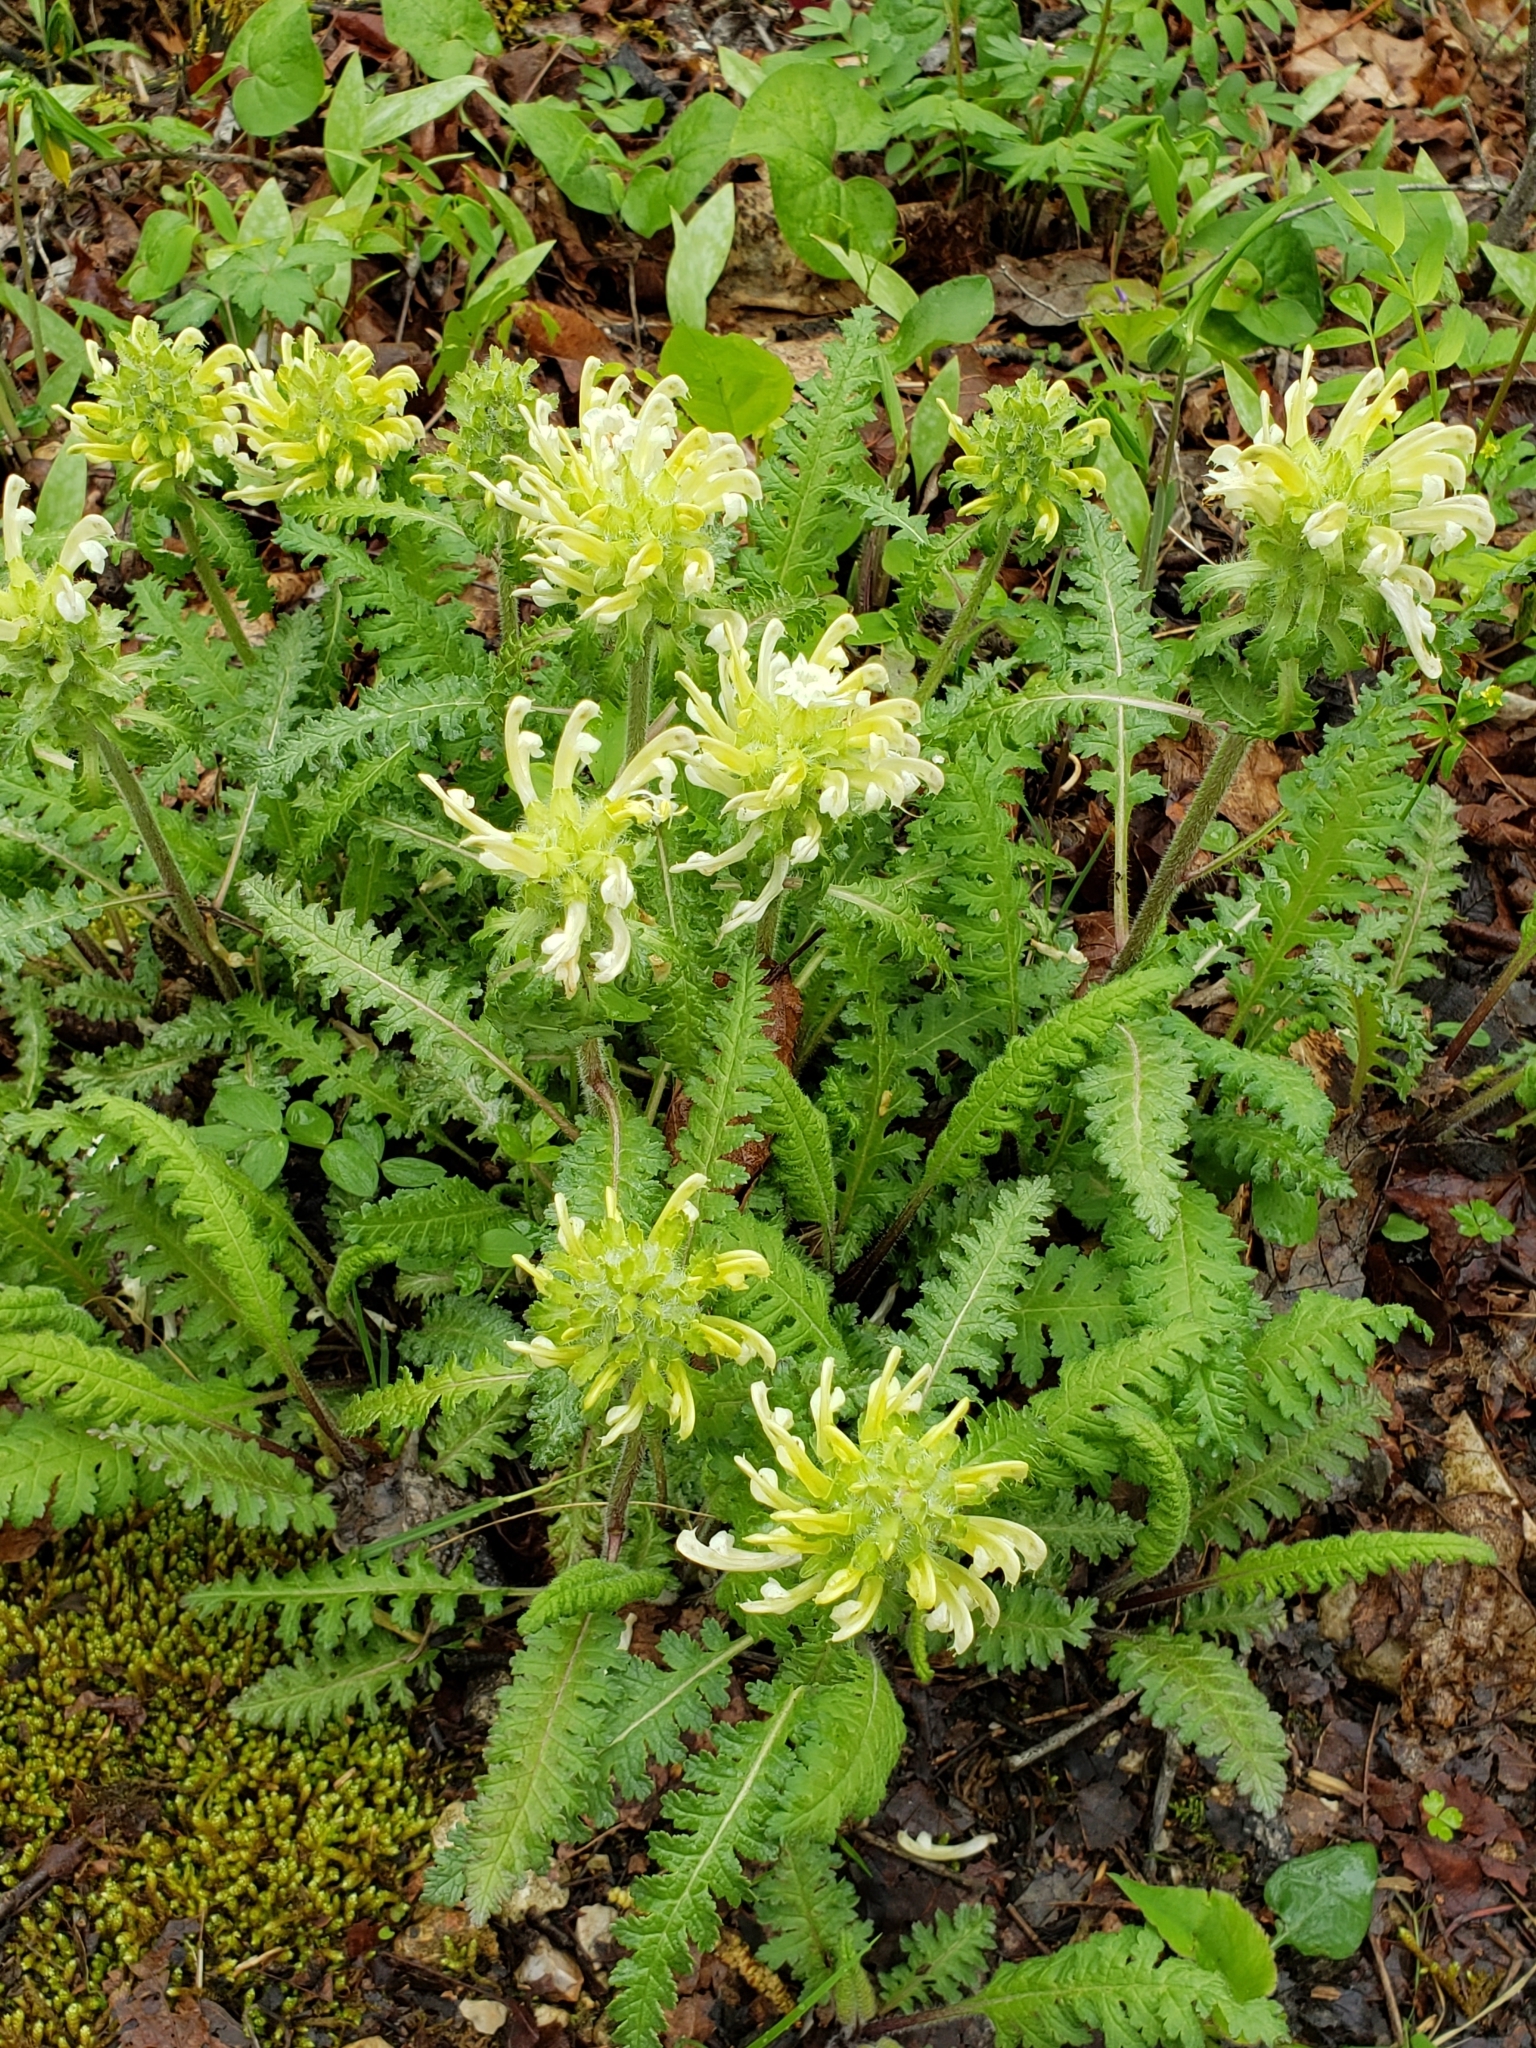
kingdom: Plantae
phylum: Tracheophyta
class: Magnoliopsida
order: Lamiales
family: Orobanchaceae
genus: Pedicularis
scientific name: Pedicularis canadensis
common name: Early lousewort
